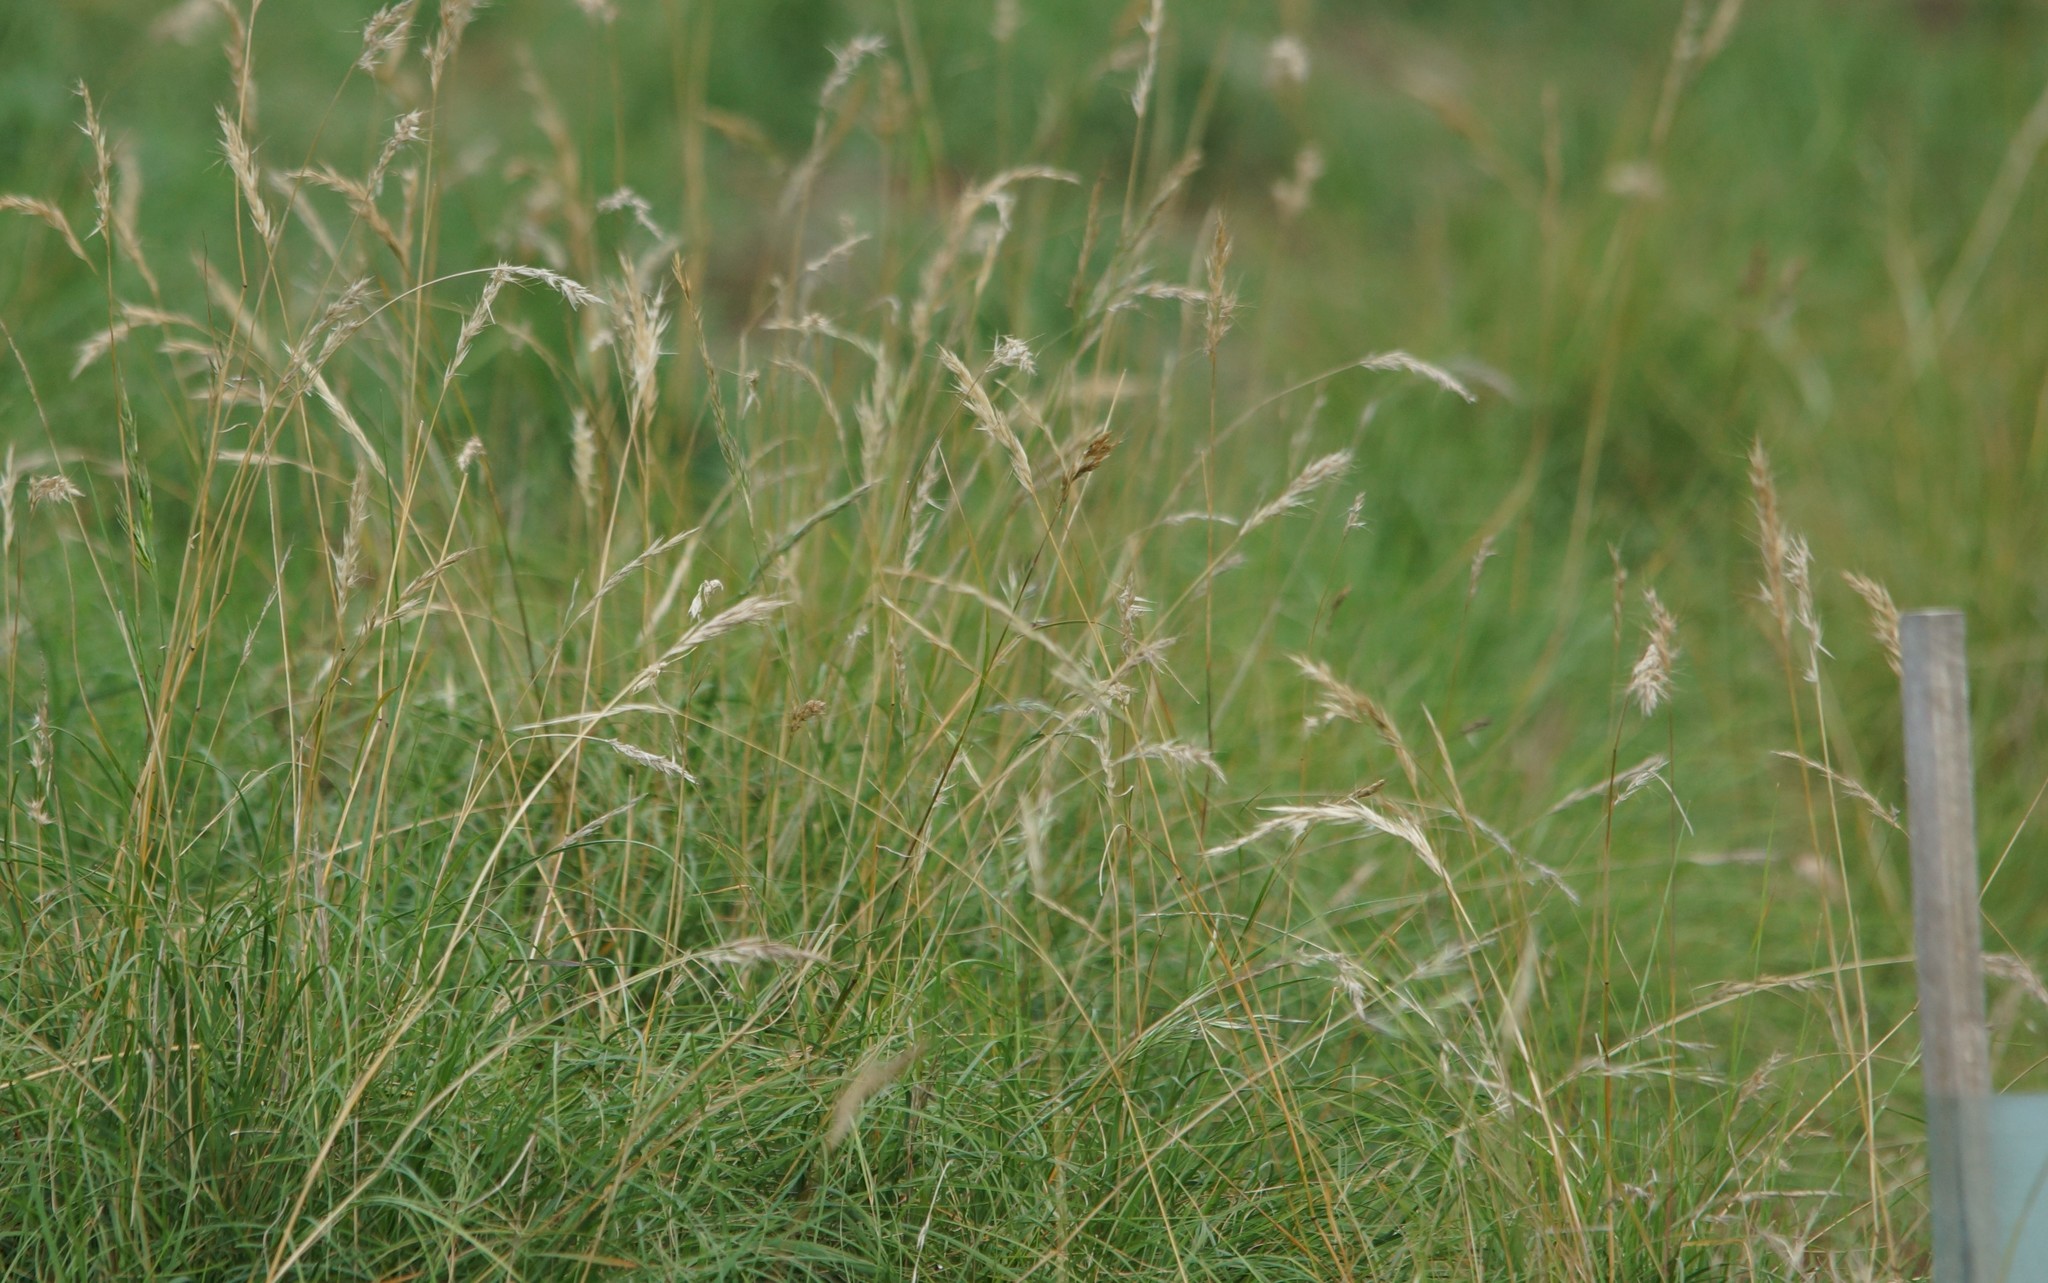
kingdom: Plantae
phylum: Tracheophyta
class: Liliopsida
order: Poales
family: Poaceae
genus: Rytidosperma
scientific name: Rytidosperma
